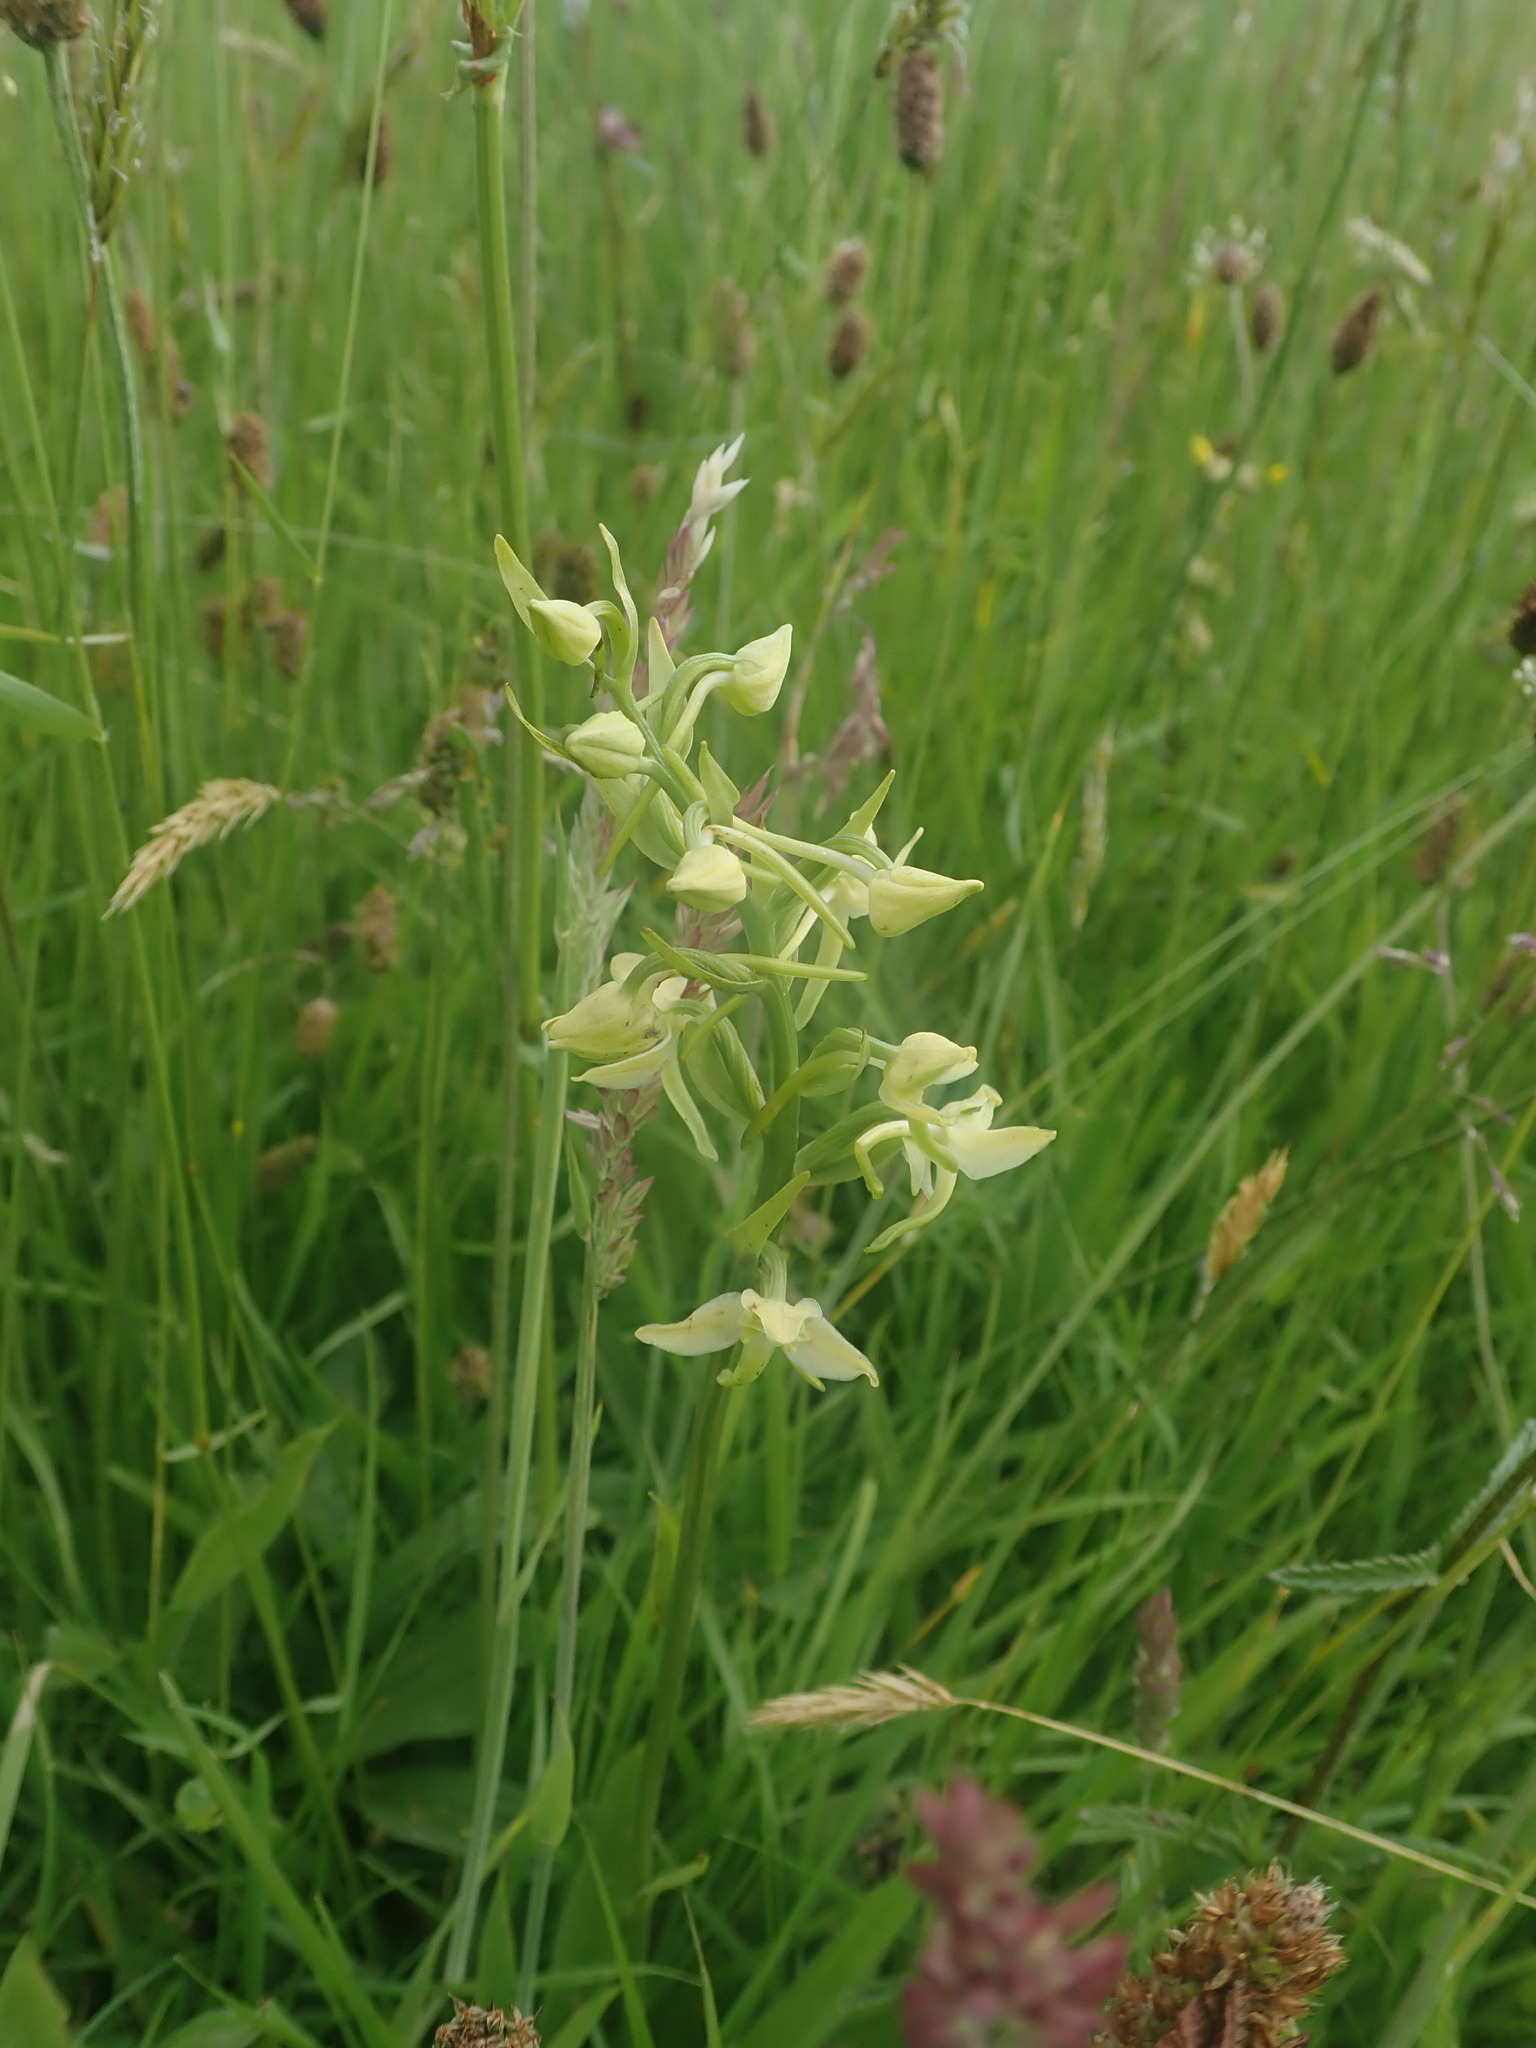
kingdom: Plantae
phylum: Tracheophyta
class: Liliopsida
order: Asparagales
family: Orchidaceae
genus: Platanthera
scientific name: Platanthera chlorantha
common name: Greater butterfly-orchid
